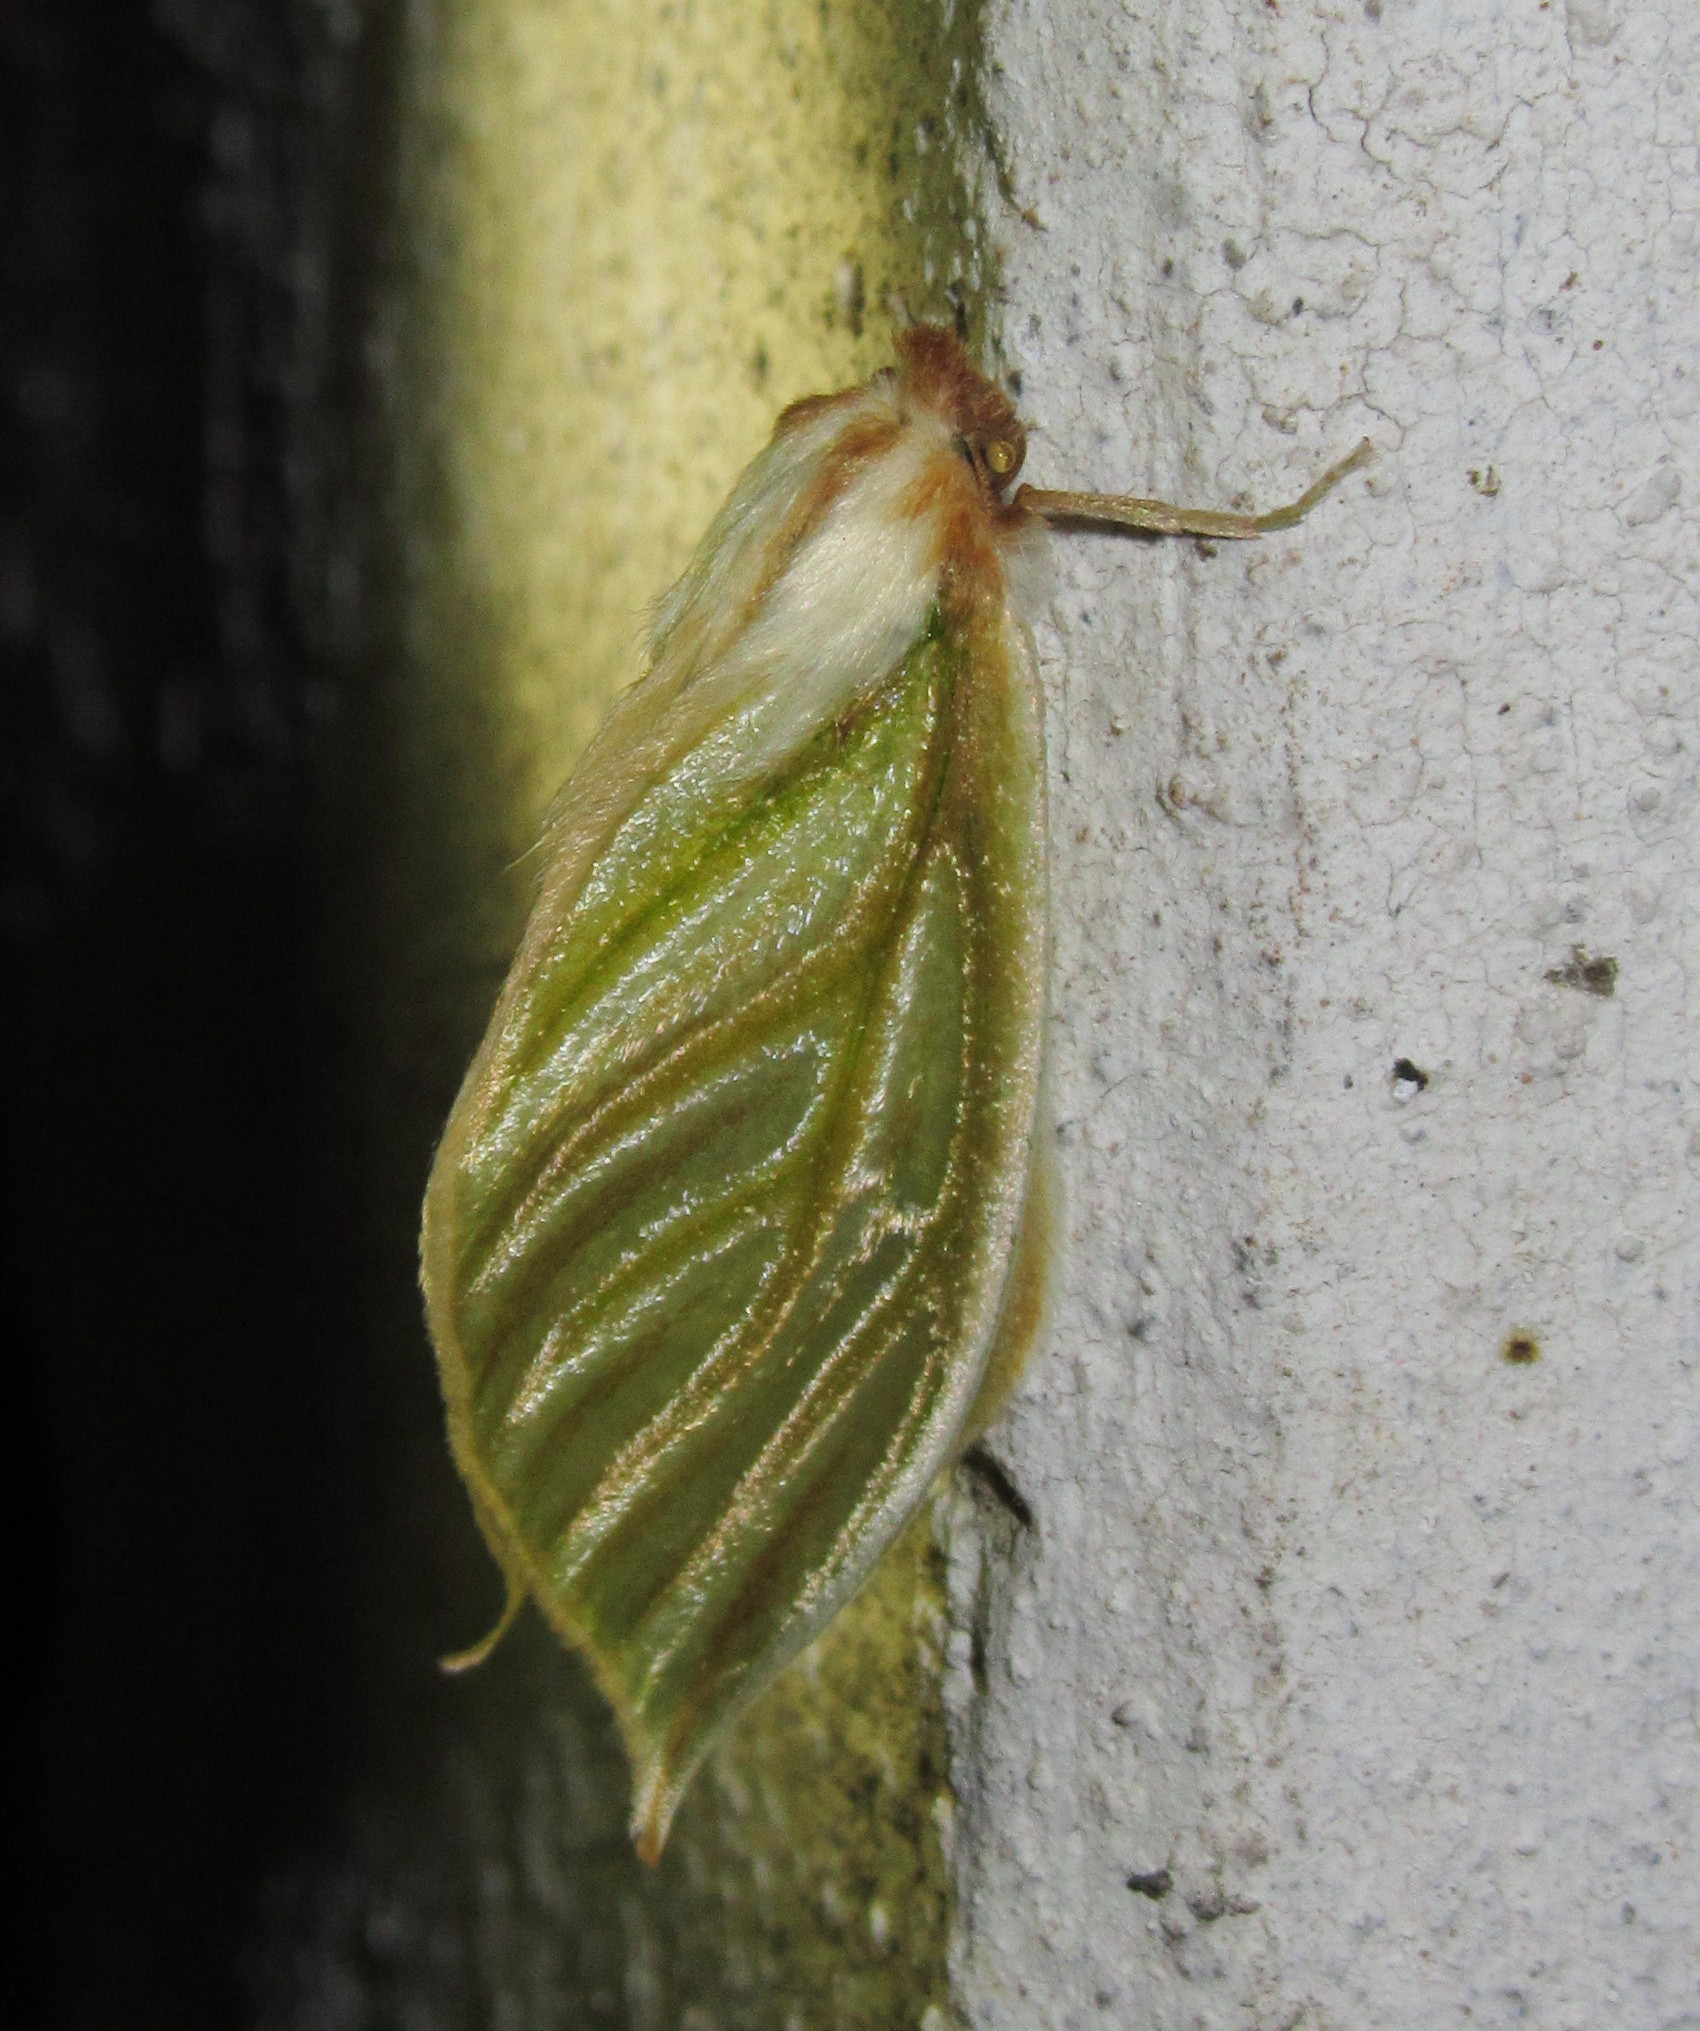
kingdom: Animalia
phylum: Arthropoda
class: Insecta
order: Lepidoptera
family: Geometridae
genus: Doratoptera
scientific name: Doratoptera nicevillei
